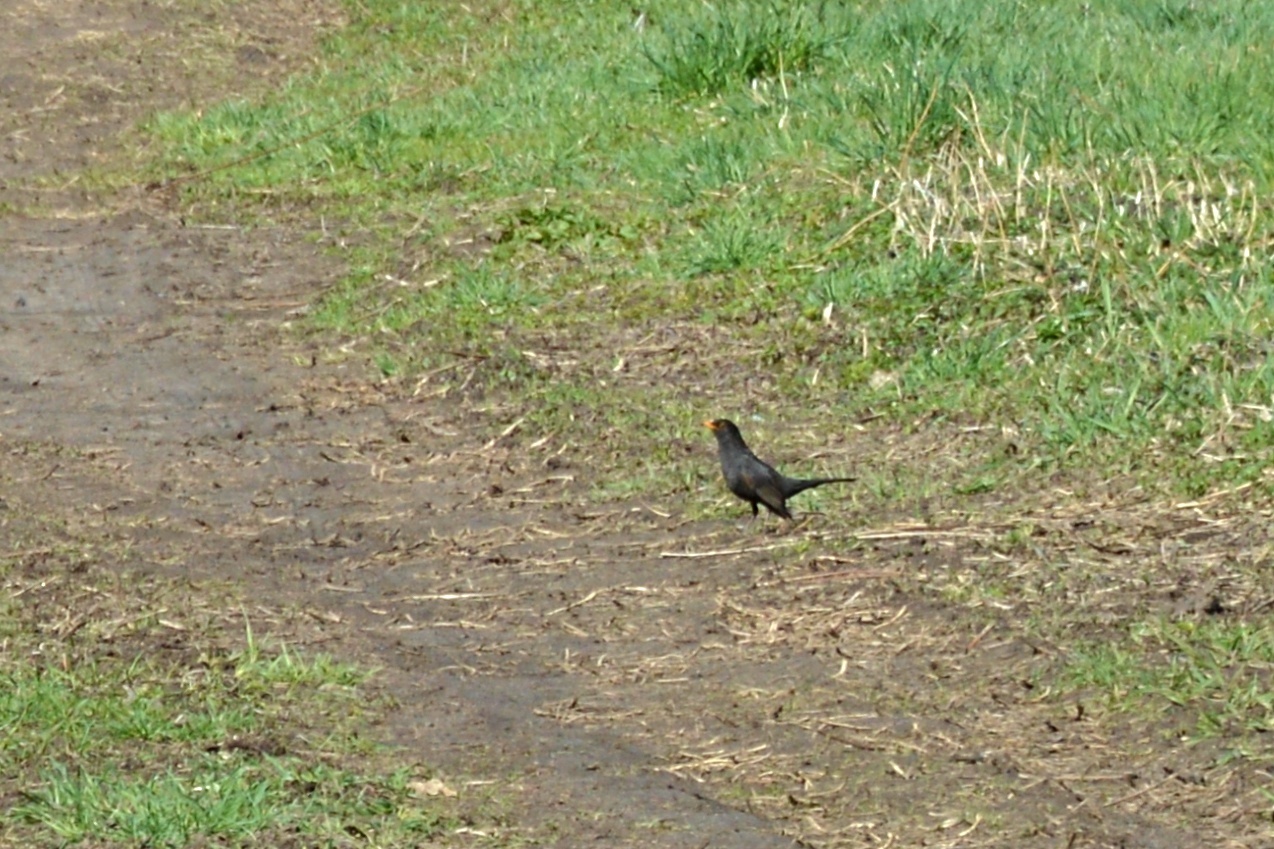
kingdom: Animalia
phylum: Chordata
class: Aves
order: Passeriformes
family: Turdidae
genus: Turdus
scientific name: Turdus merula
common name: Common blackbird
